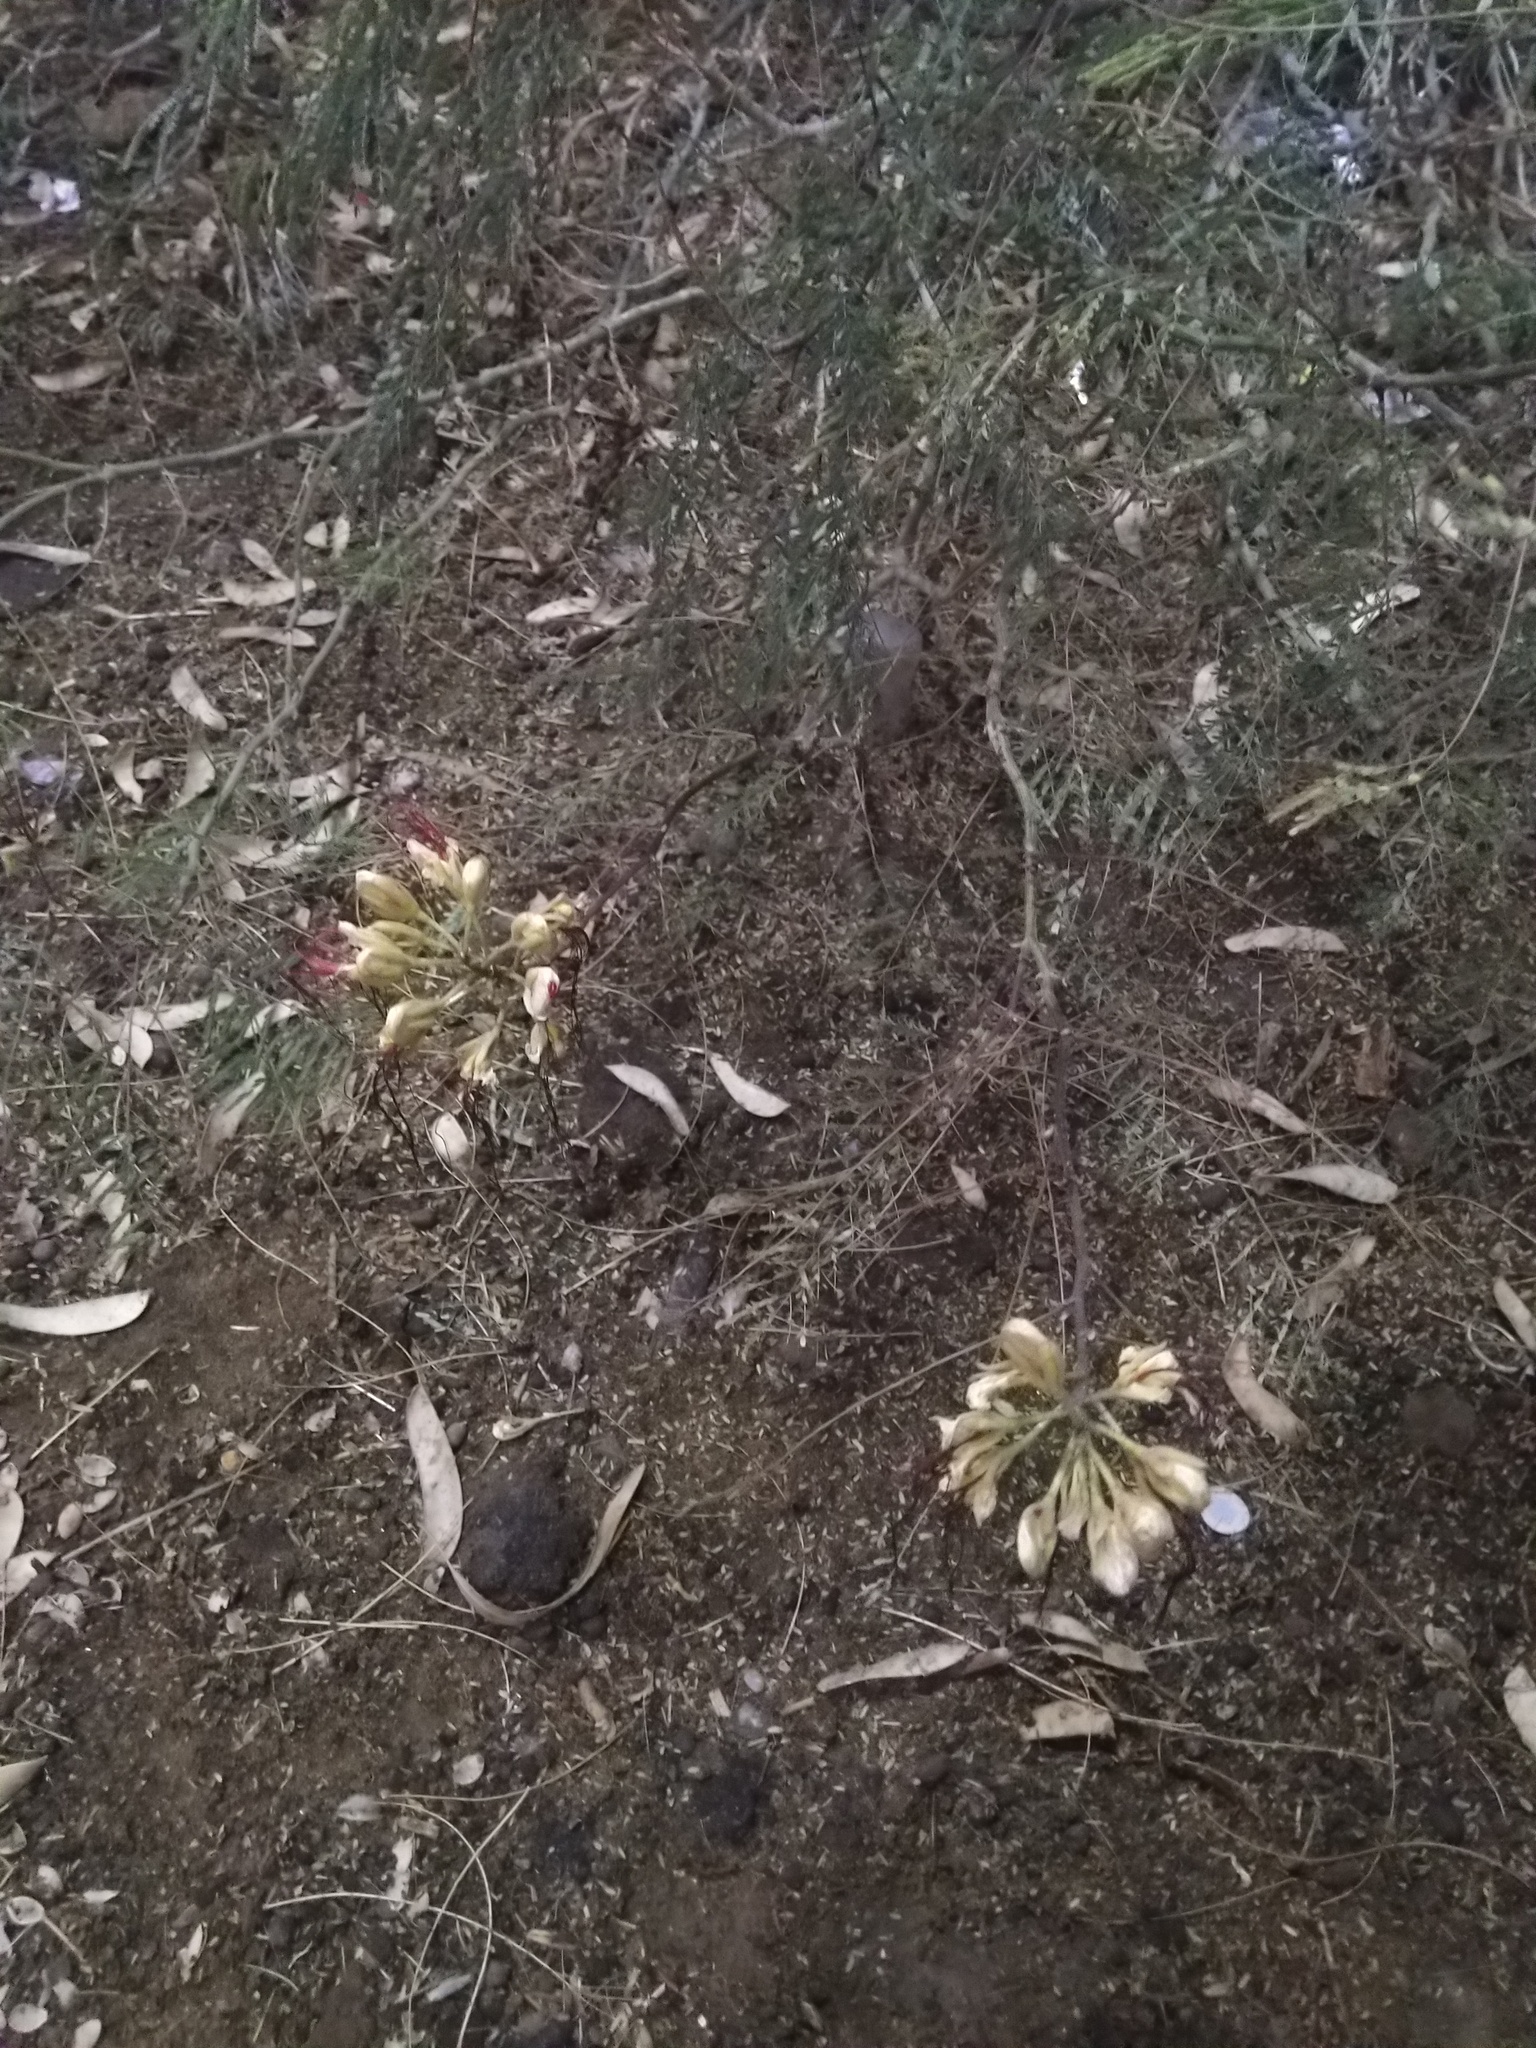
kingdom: Plantae
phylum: Tracheophyta
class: Magnoliopsida
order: Fabales
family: Fabaceae
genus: Erythrostemon
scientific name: Erythrostemon gilliesii
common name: Bird-of-paradise shrub
